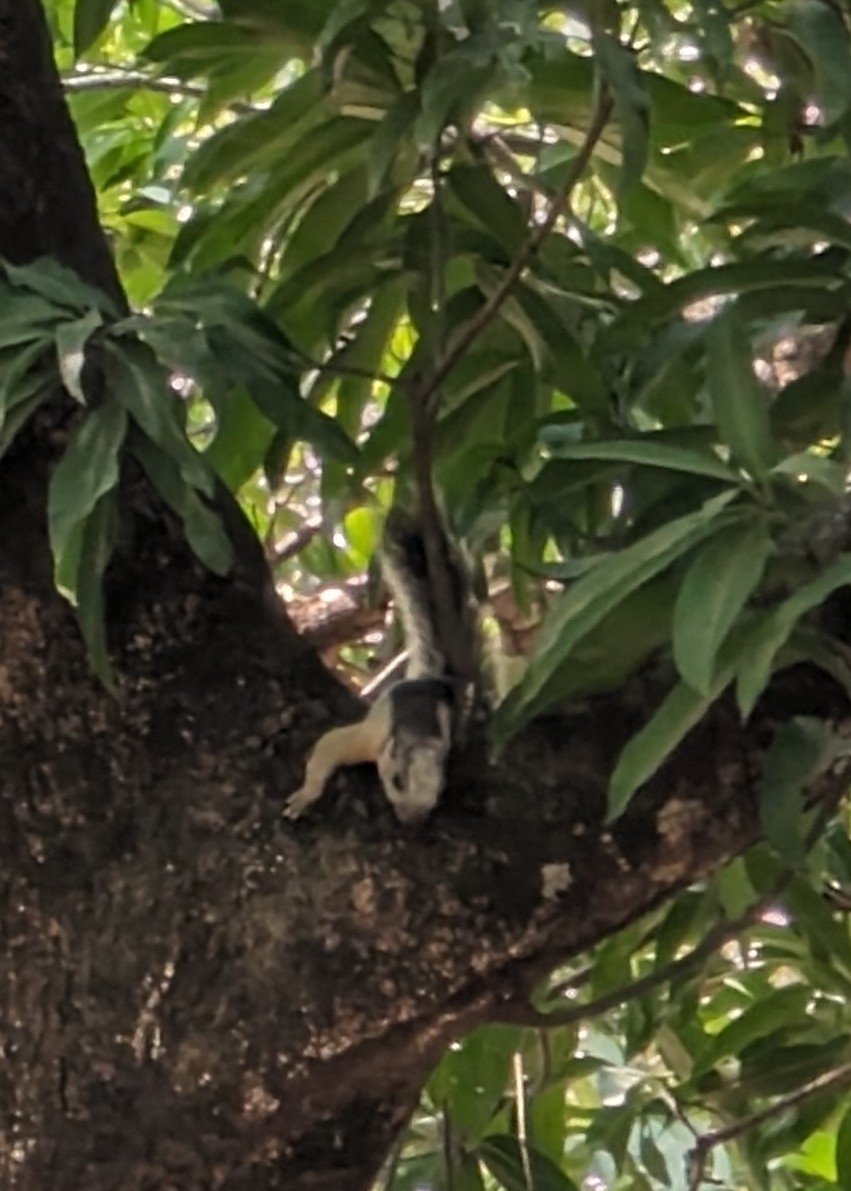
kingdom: Animalia
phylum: Chordata
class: Mammalia
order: Rodentia
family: Sciuridae
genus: Sciurus
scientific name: Sciurus variegatoides
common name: Variegated squirrel
